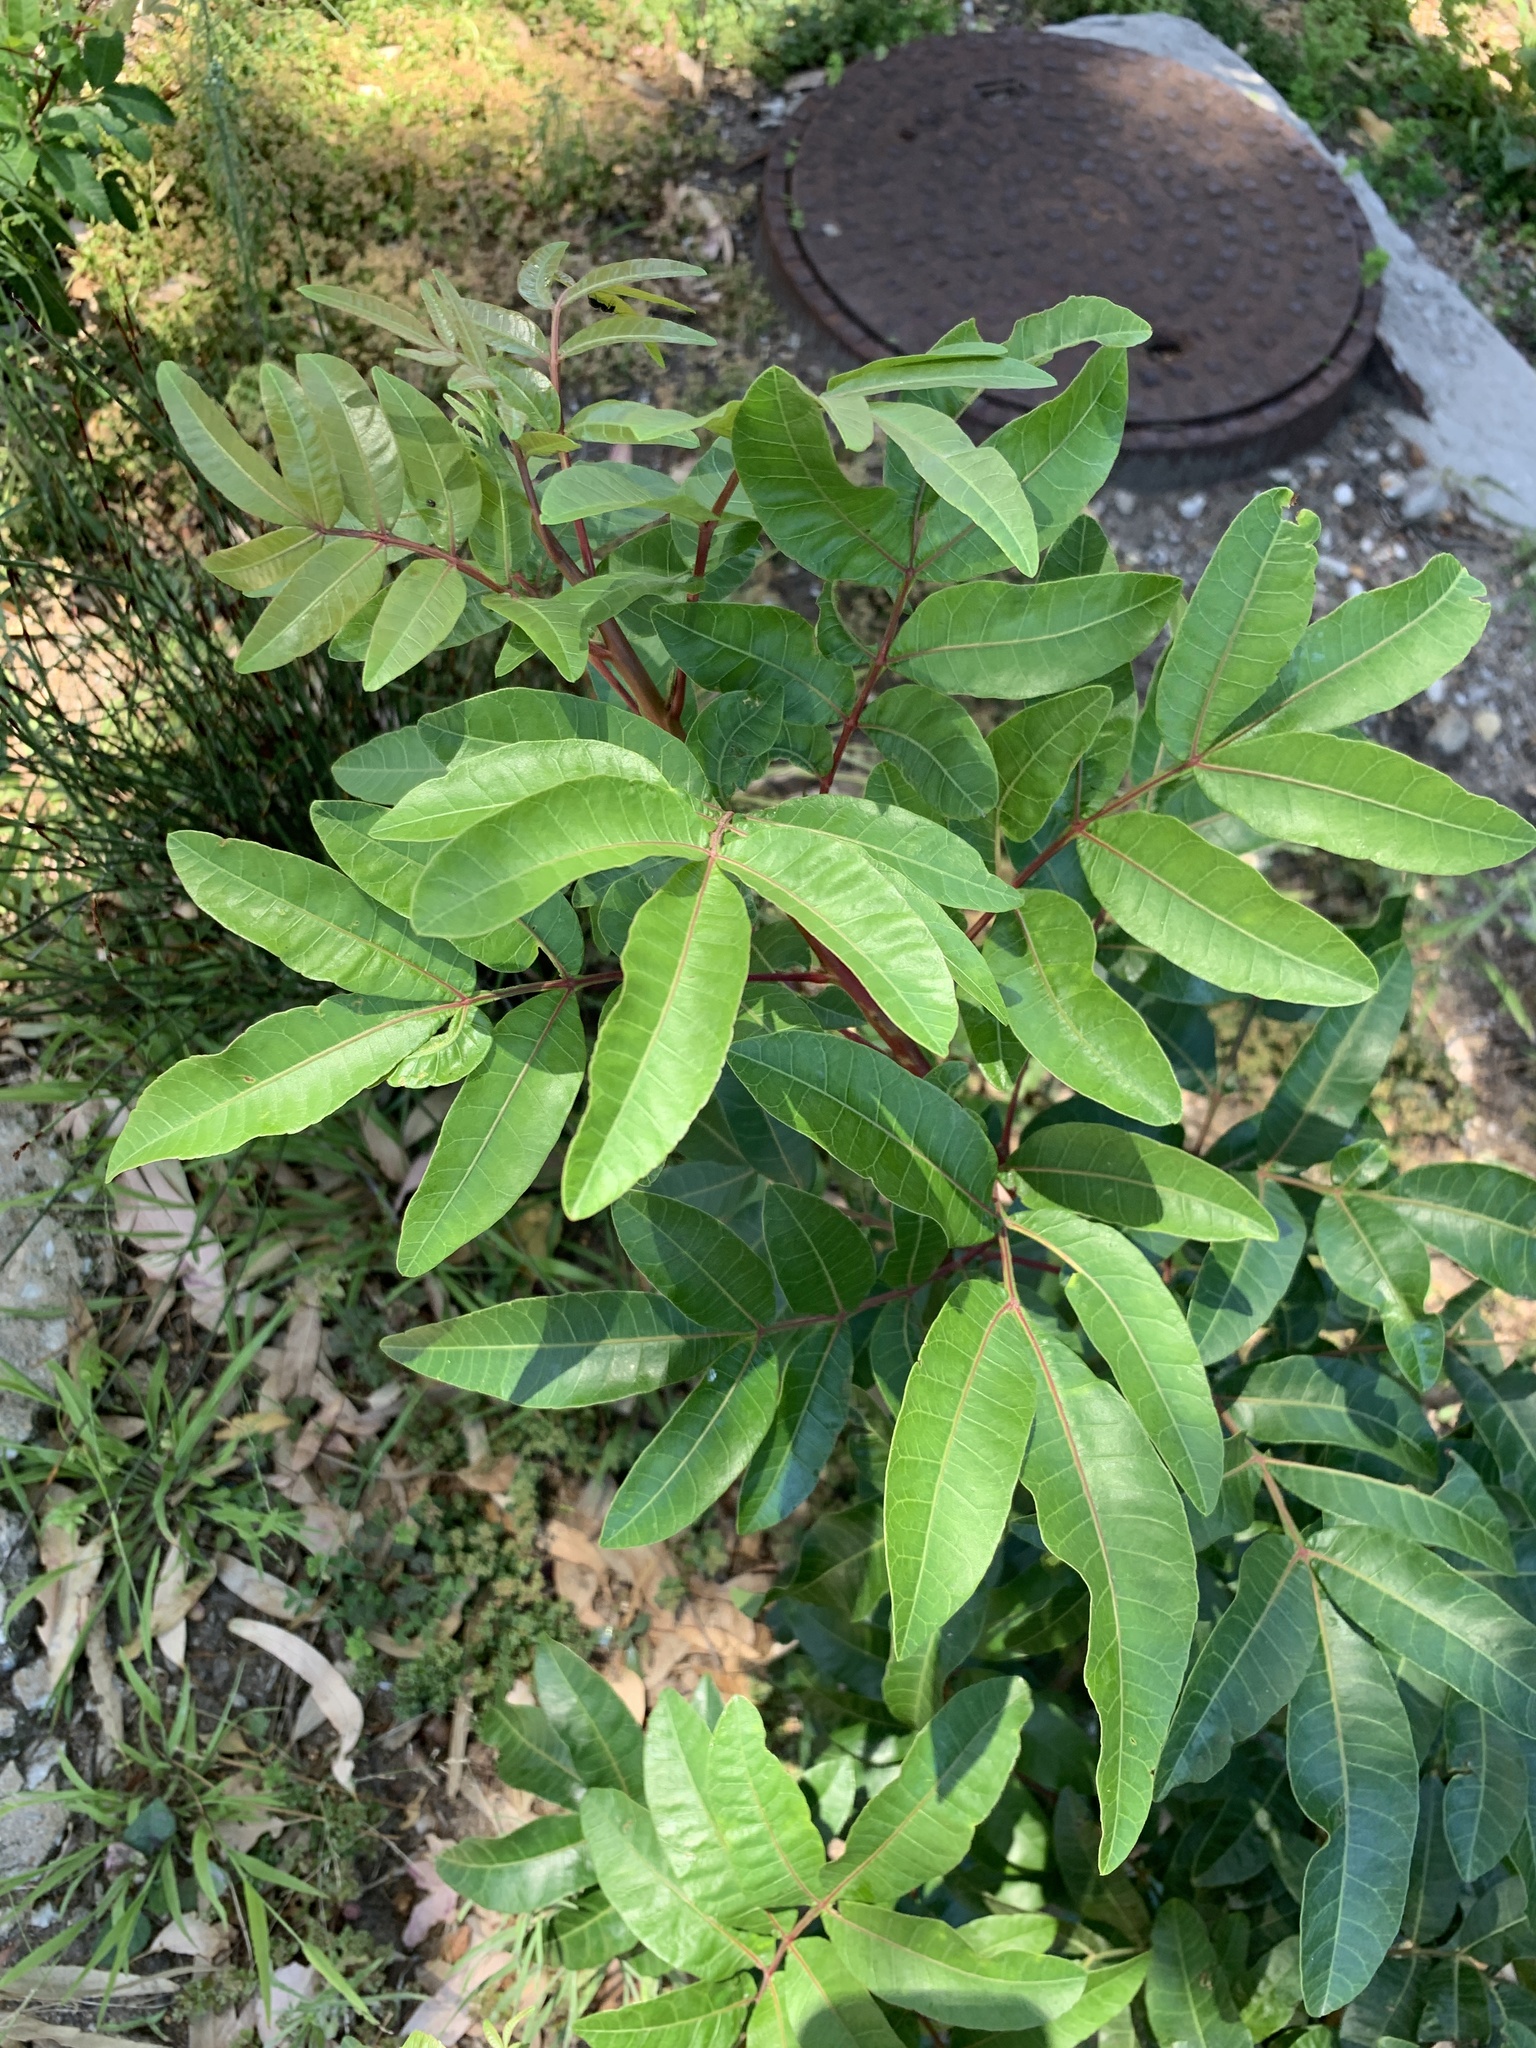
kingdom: Plantae
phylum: Tracheophyta
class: Magnoliopsida
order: Sapindales
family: Anacardiaceae
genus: Schinus
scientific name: Schinus terebinthifolia
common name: Brazilian peppertree
